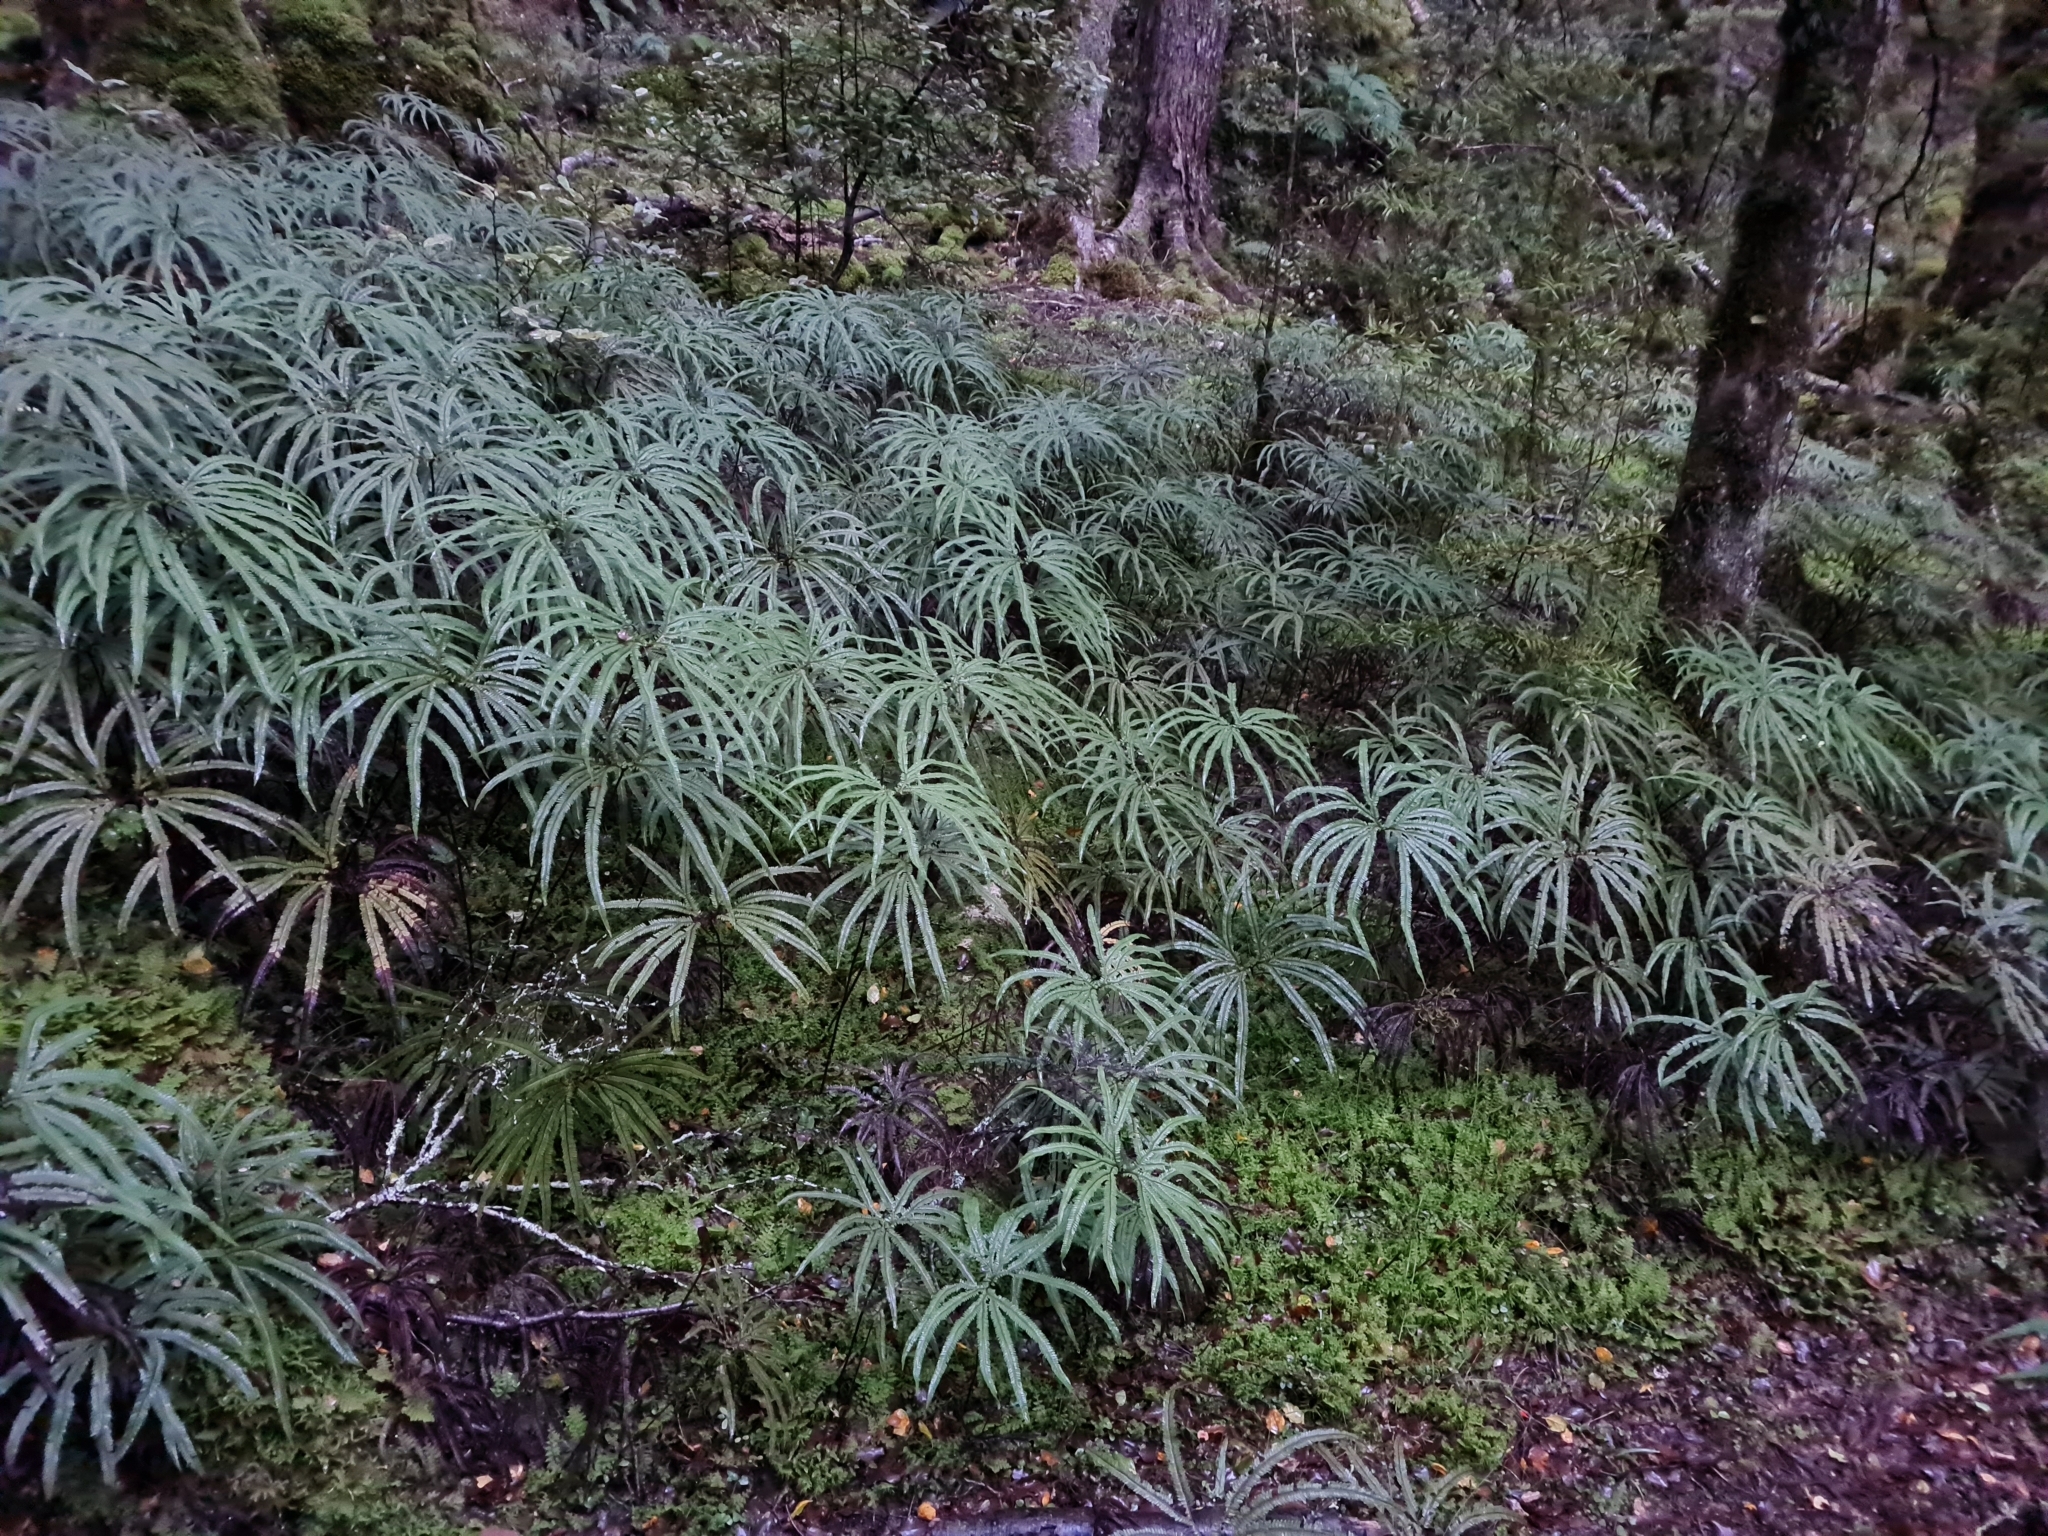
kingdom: Plantae
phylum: Tracheophyta
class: Polypodiopsida
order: Gleicheniales
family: Gleicheniaceae
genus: Sticherus
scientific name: Sticherus cunninghamii
